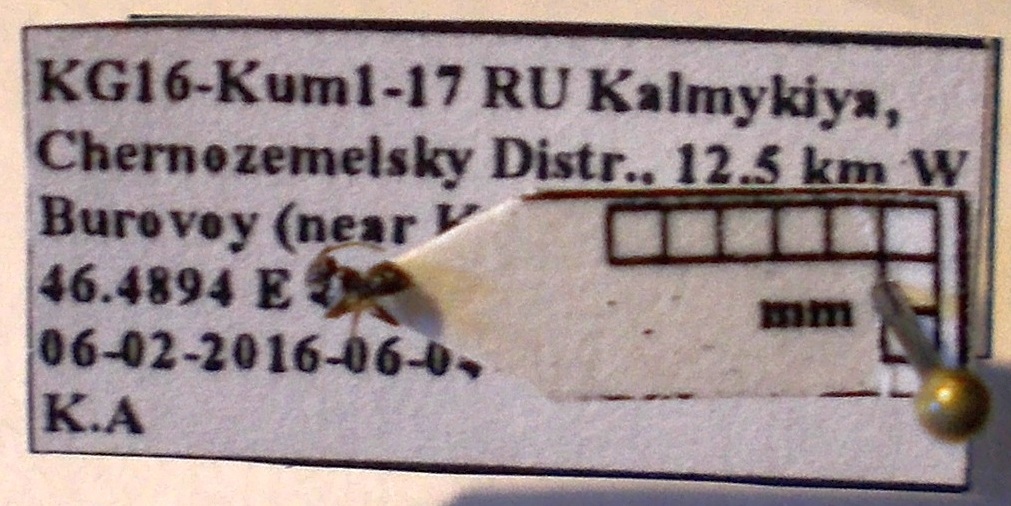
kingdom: Animalia
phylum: Arthropoda
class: Insecta
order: Hymenoptera
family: Formicidae
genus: Tapinoma
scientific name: Tapinoma erraticum
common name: Erratic ant
